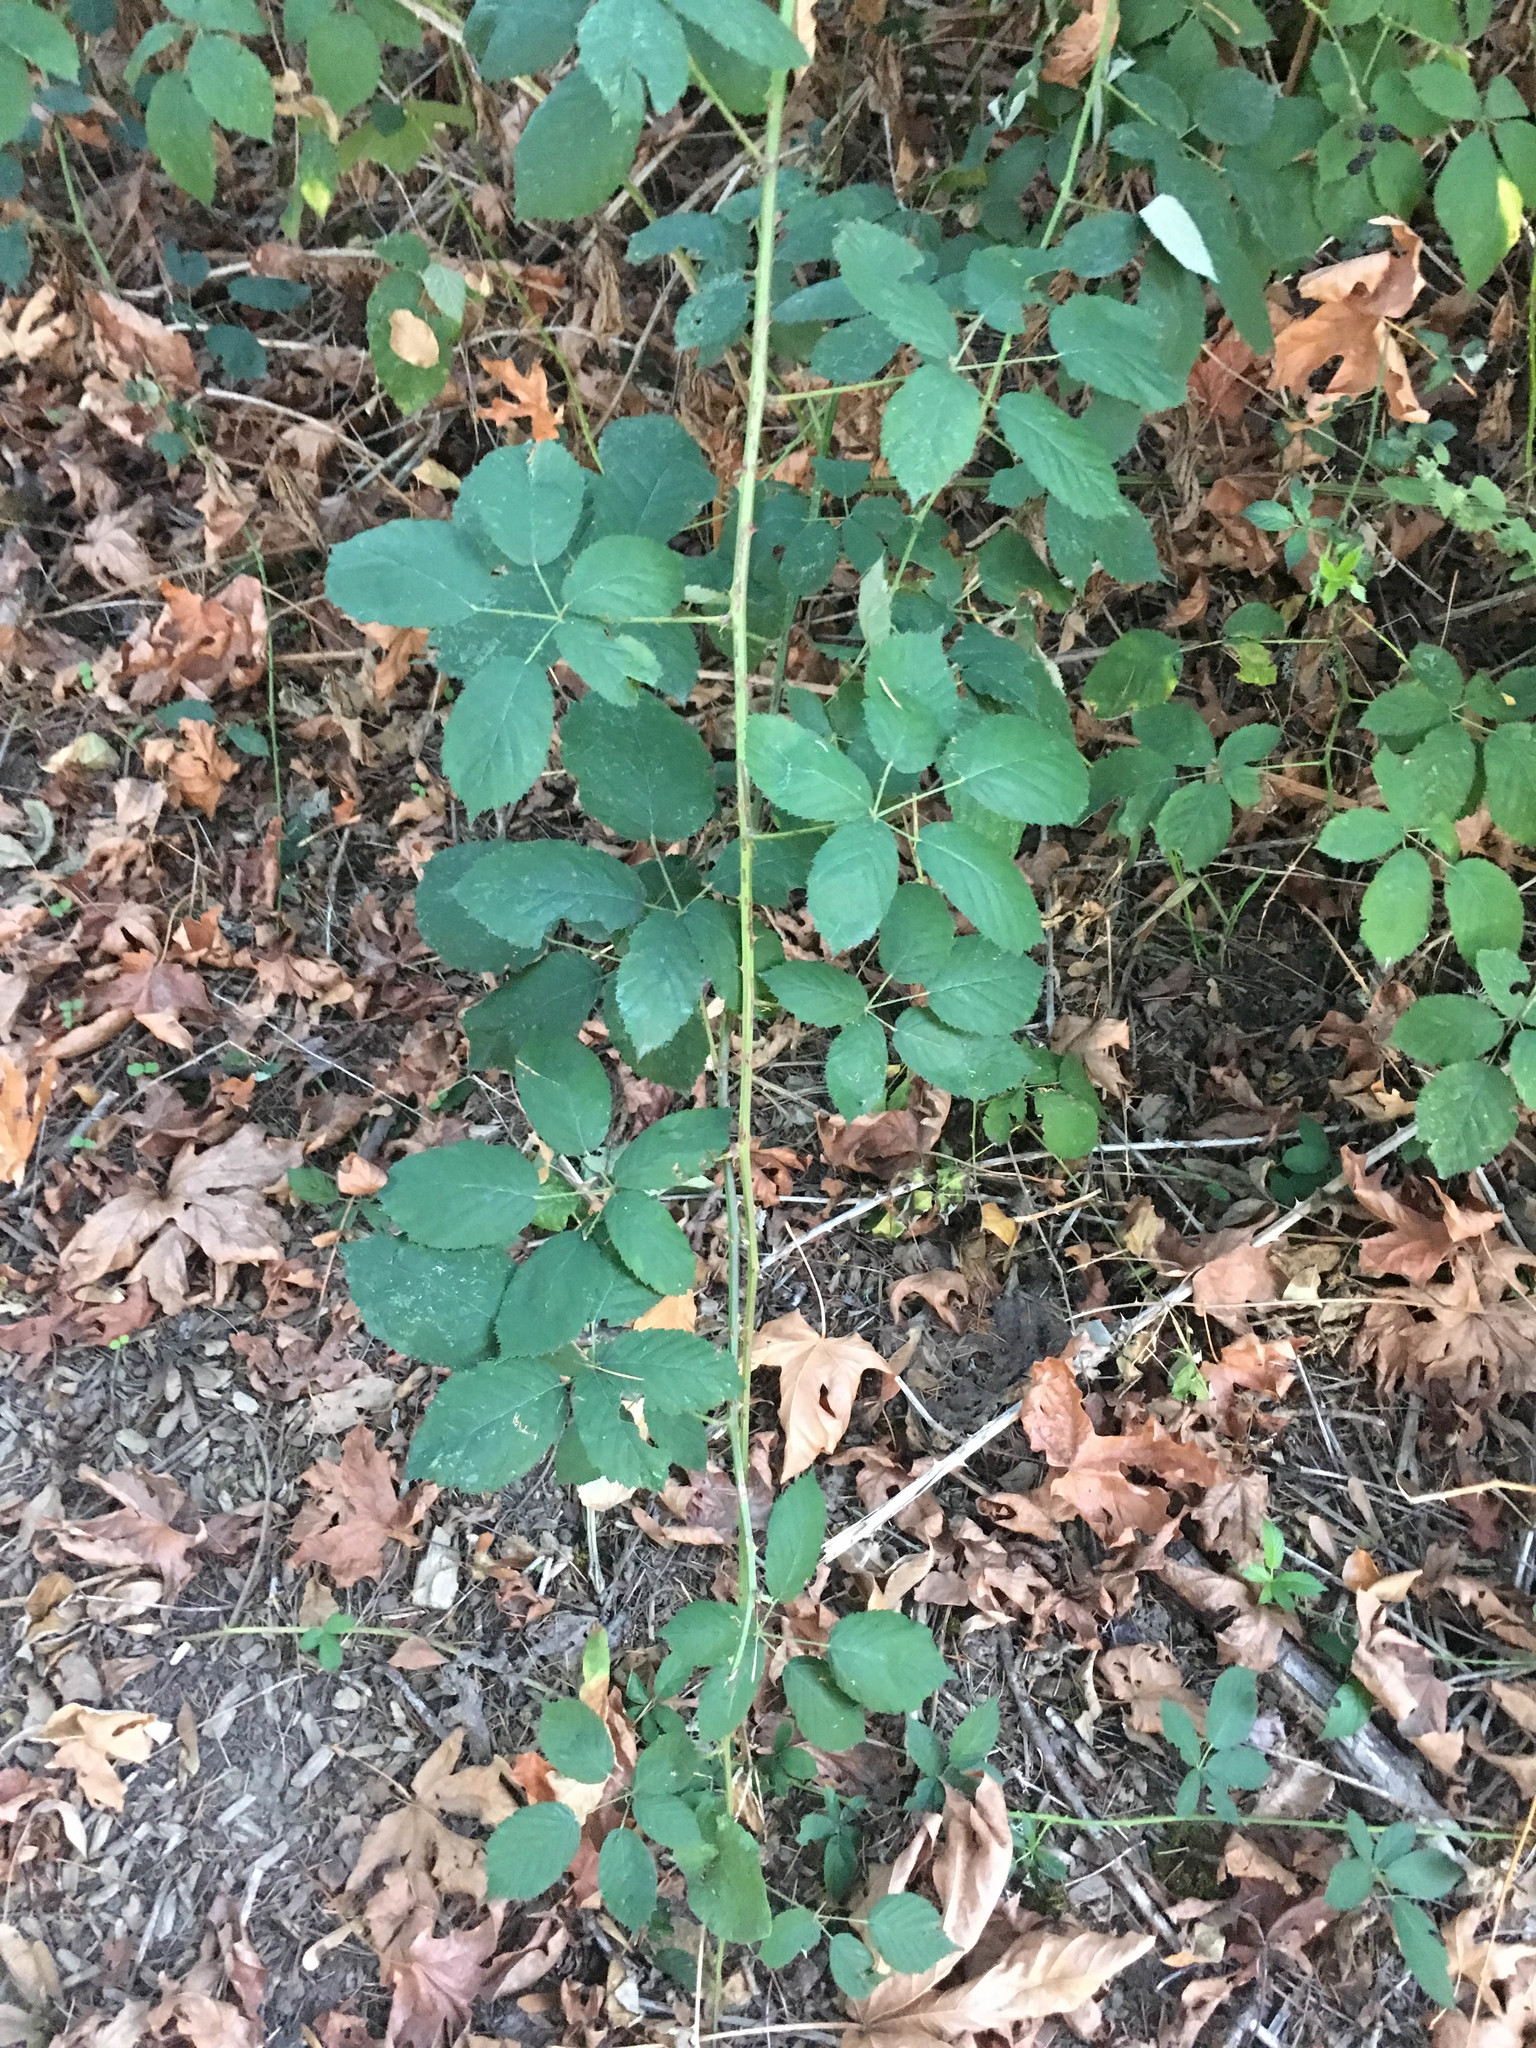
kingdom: Plantae
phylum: Tracheophyta
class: Magnoliopsida
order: Rosales
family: Rosaceae
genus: Rubus
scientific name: Rubus bifrons
